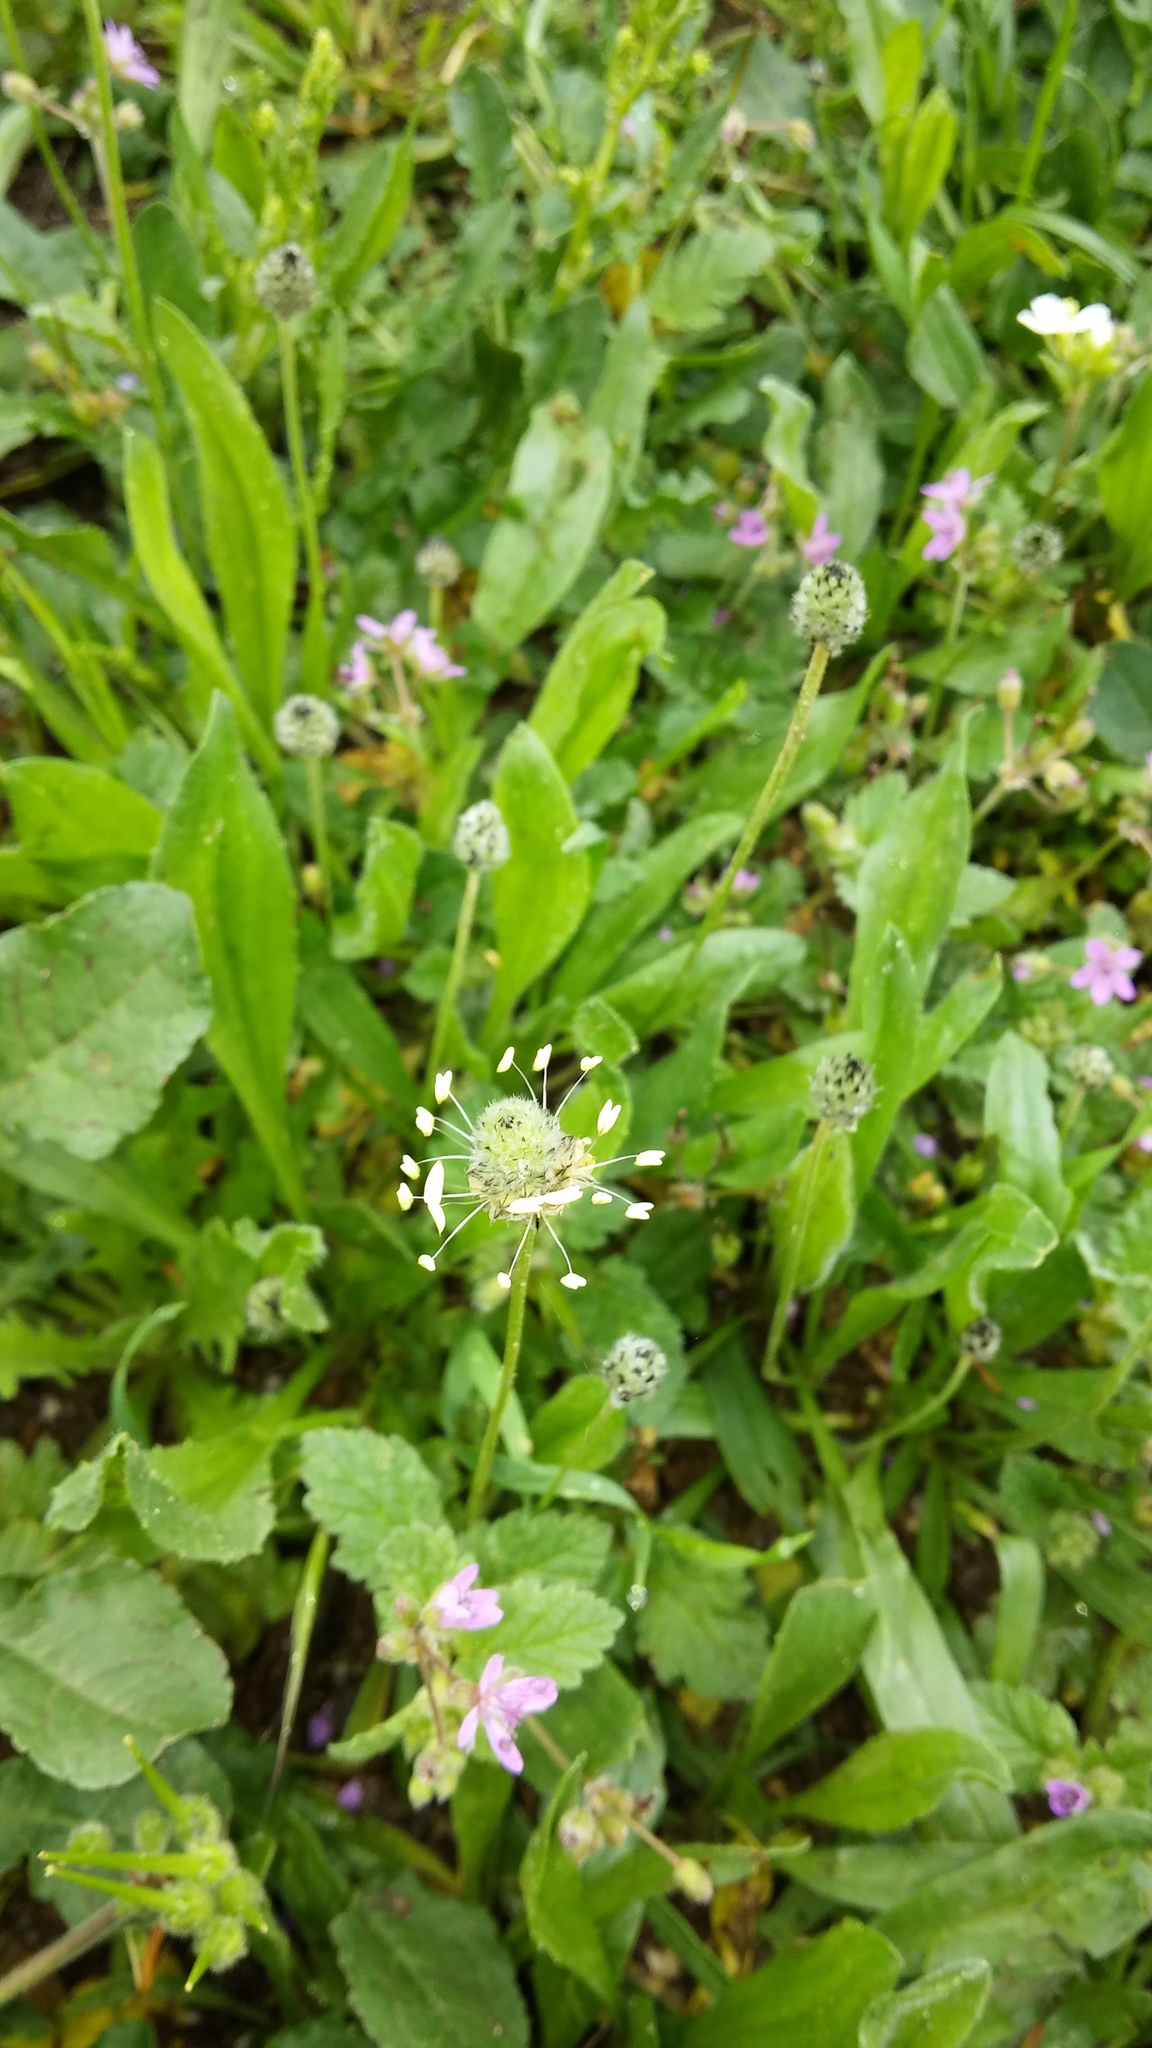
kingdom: Plantae
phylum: Tracheophyta
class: Magnoliopsida
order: Lamiales
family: Plantaginaceae
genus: Plantago
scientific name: Plantago lanceolata
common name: Ribwort plantain
